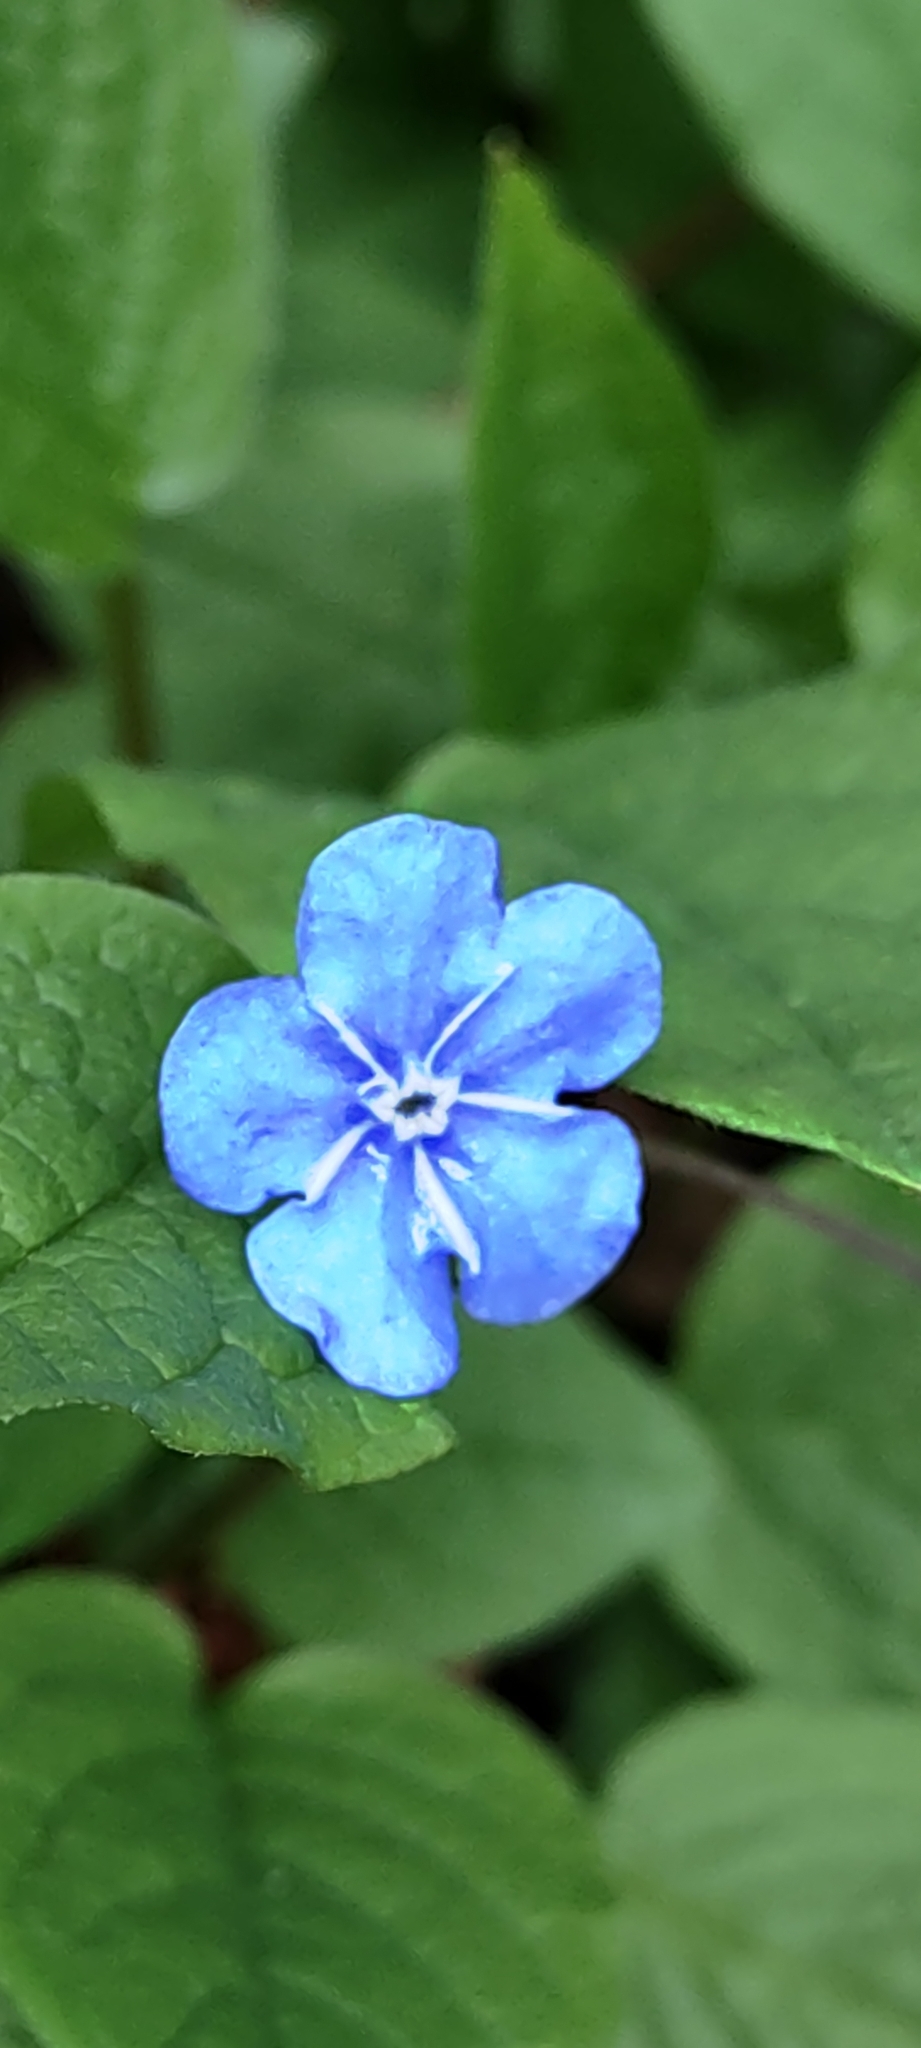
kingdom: Plantae
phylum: Tracheophyta
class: Magnoliopsida
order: Boraginales
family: Boraginaceae
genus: Omphalodes
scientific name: Omphalodes verna
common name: Blue-eyed-mary
